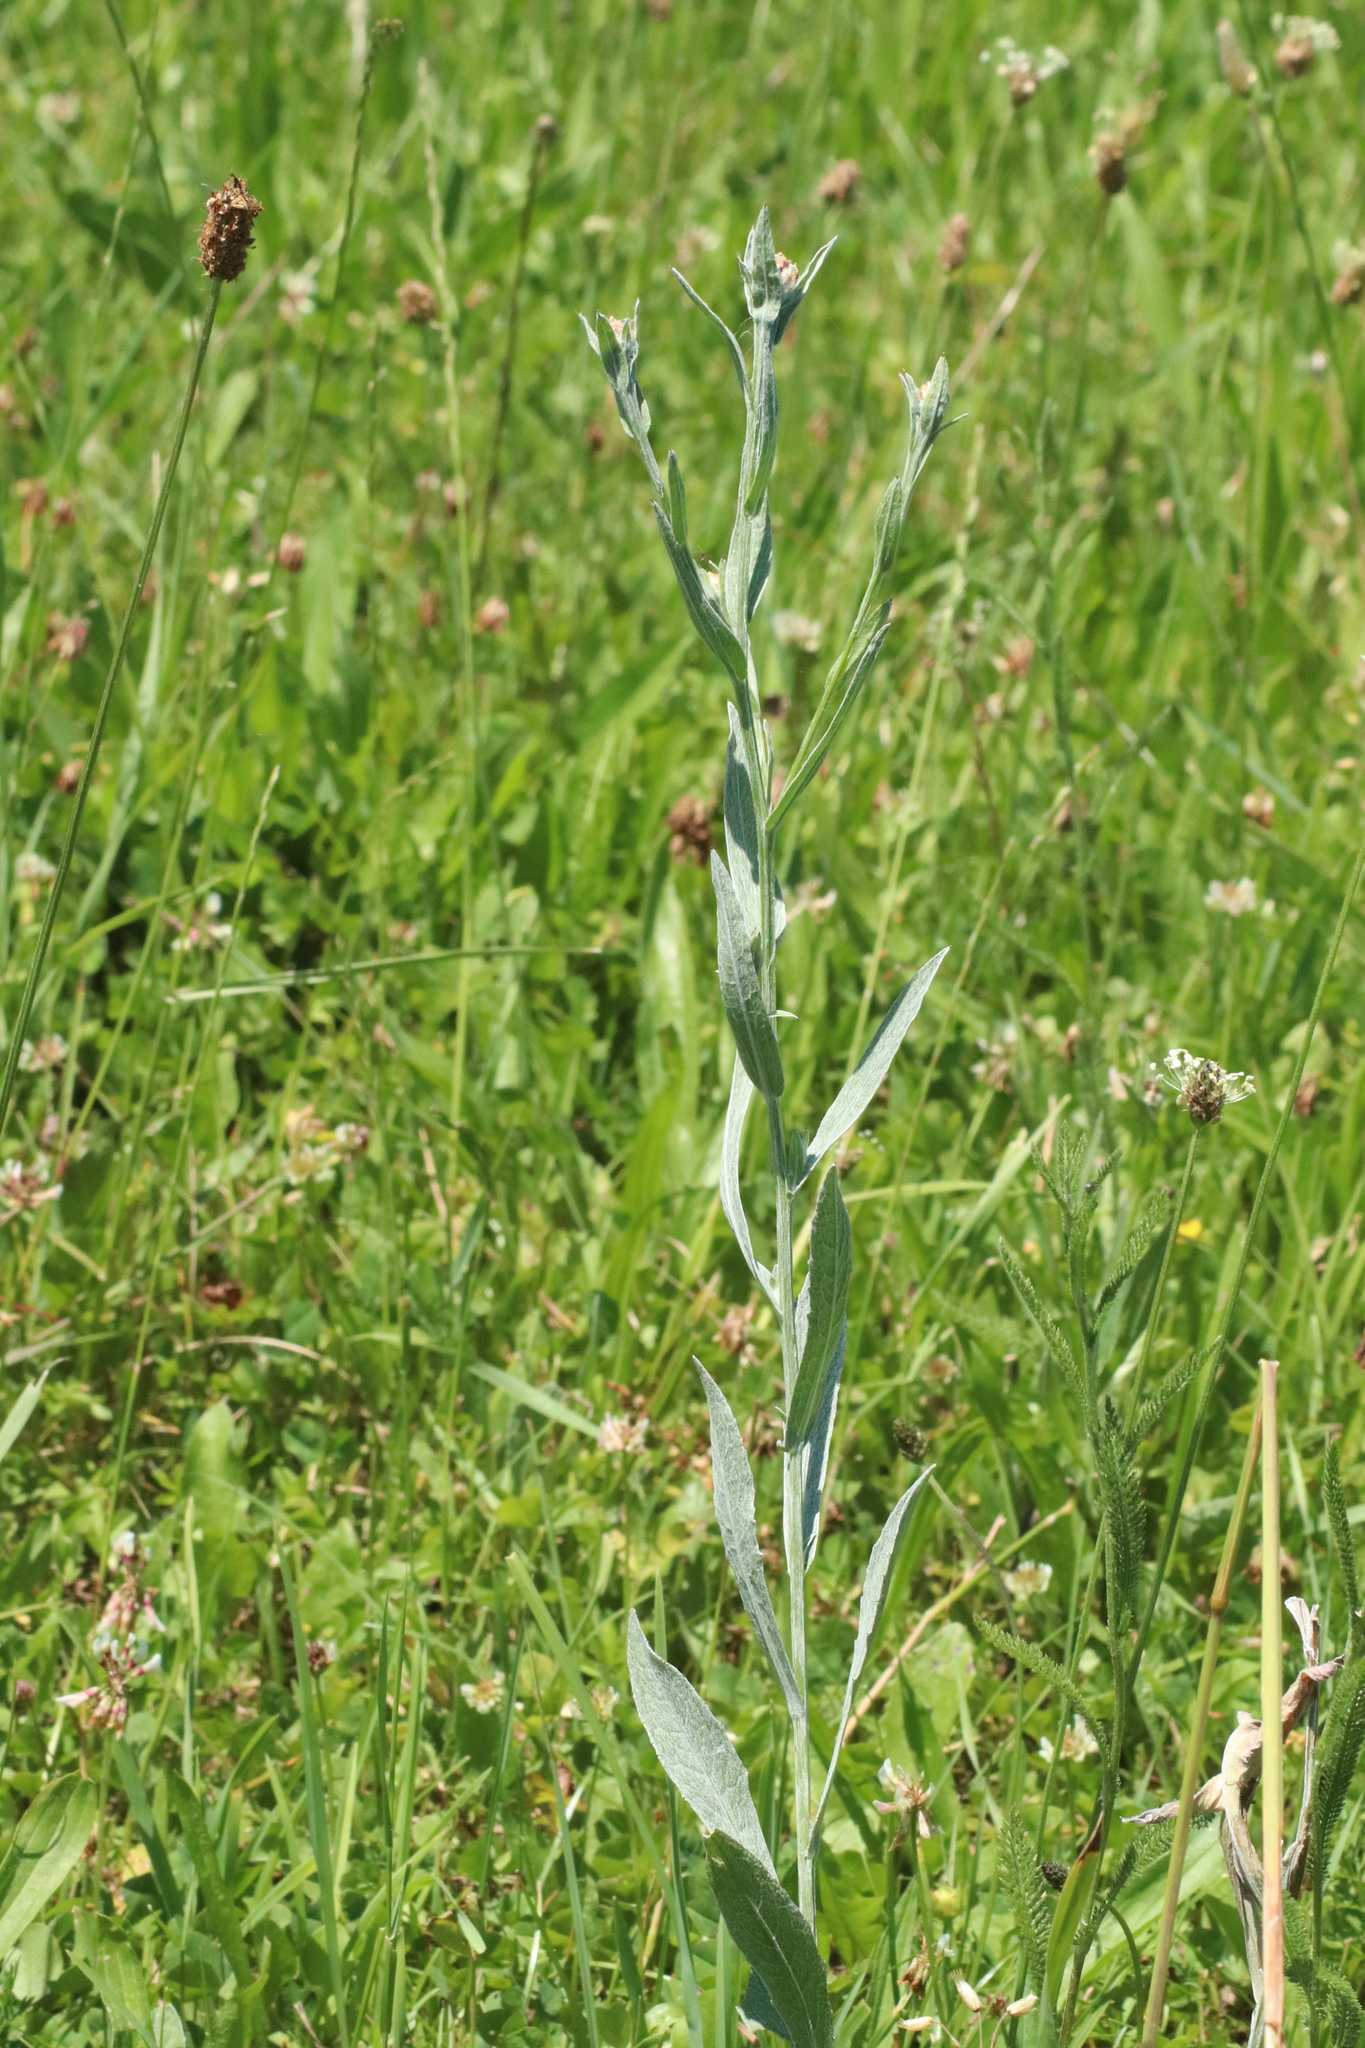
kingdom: Plantae
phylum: Tracheophyta
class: Magnoliopsida
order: Asterales
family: Asteraceae
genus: Centaurea
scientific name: Centaurea jacea
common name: Brown knapweed
